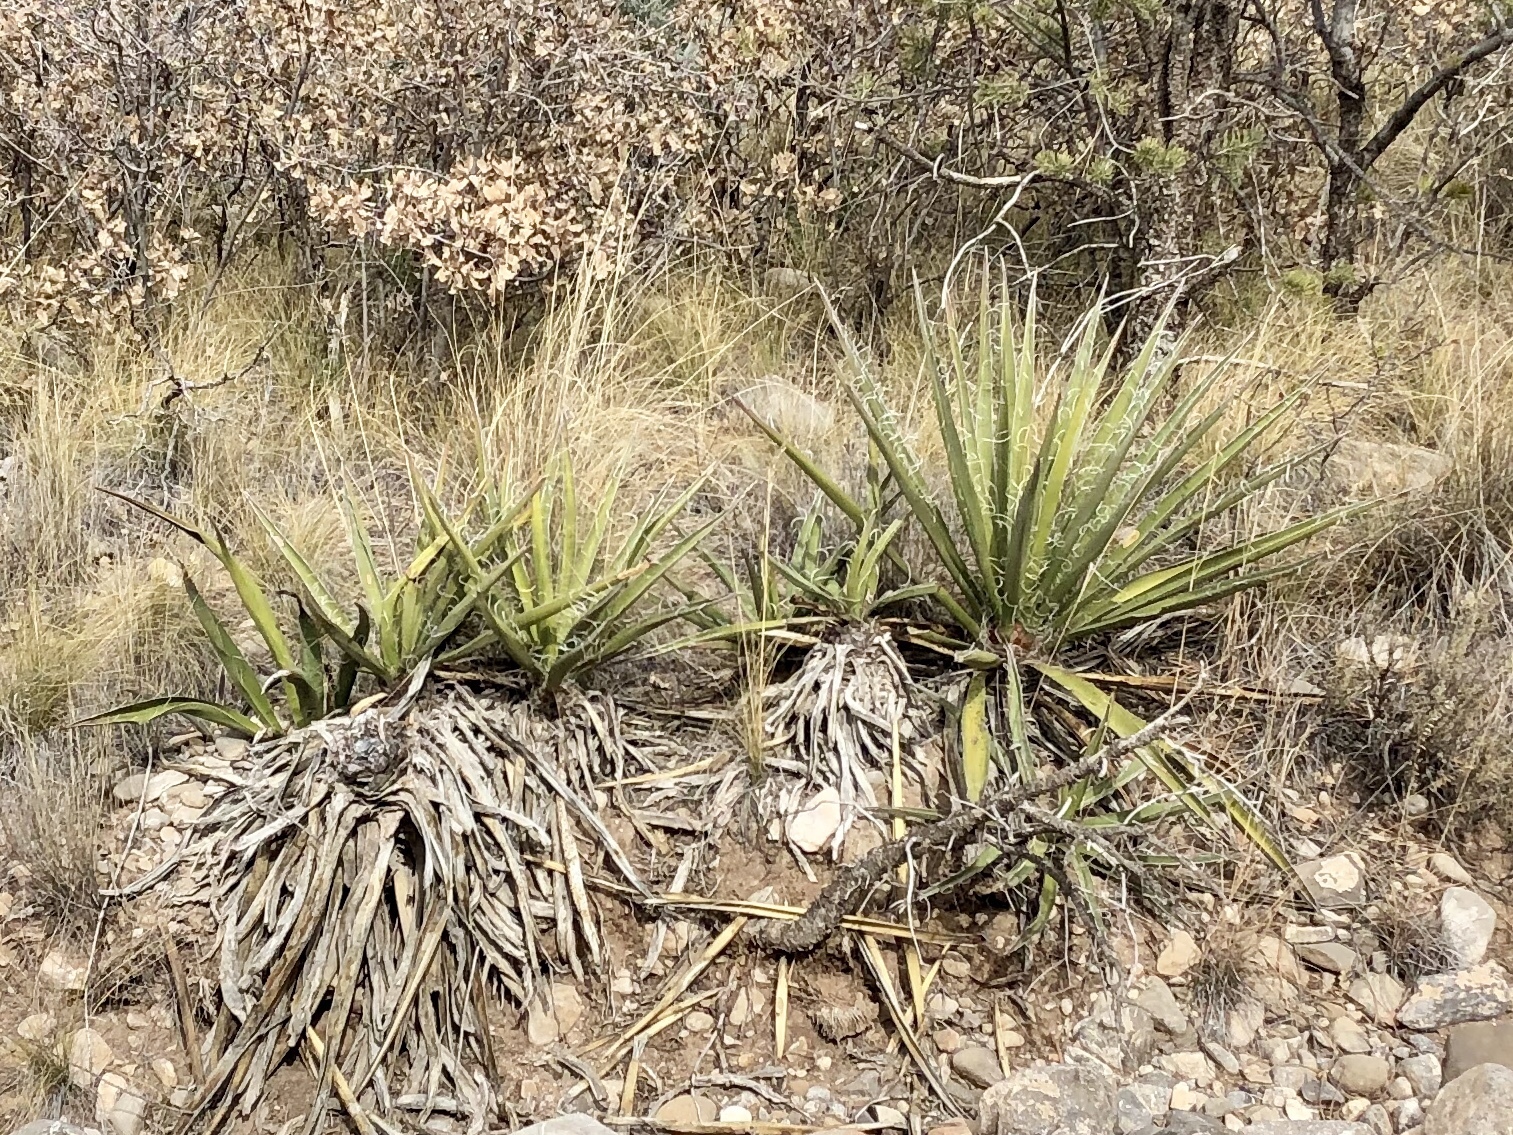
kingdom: Plantae
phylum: Tracheophyta
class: Liliopsida
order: Asparagales
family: Asparagaceae
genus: Yucca
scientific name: Yucca baccata
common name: Banana yucca
